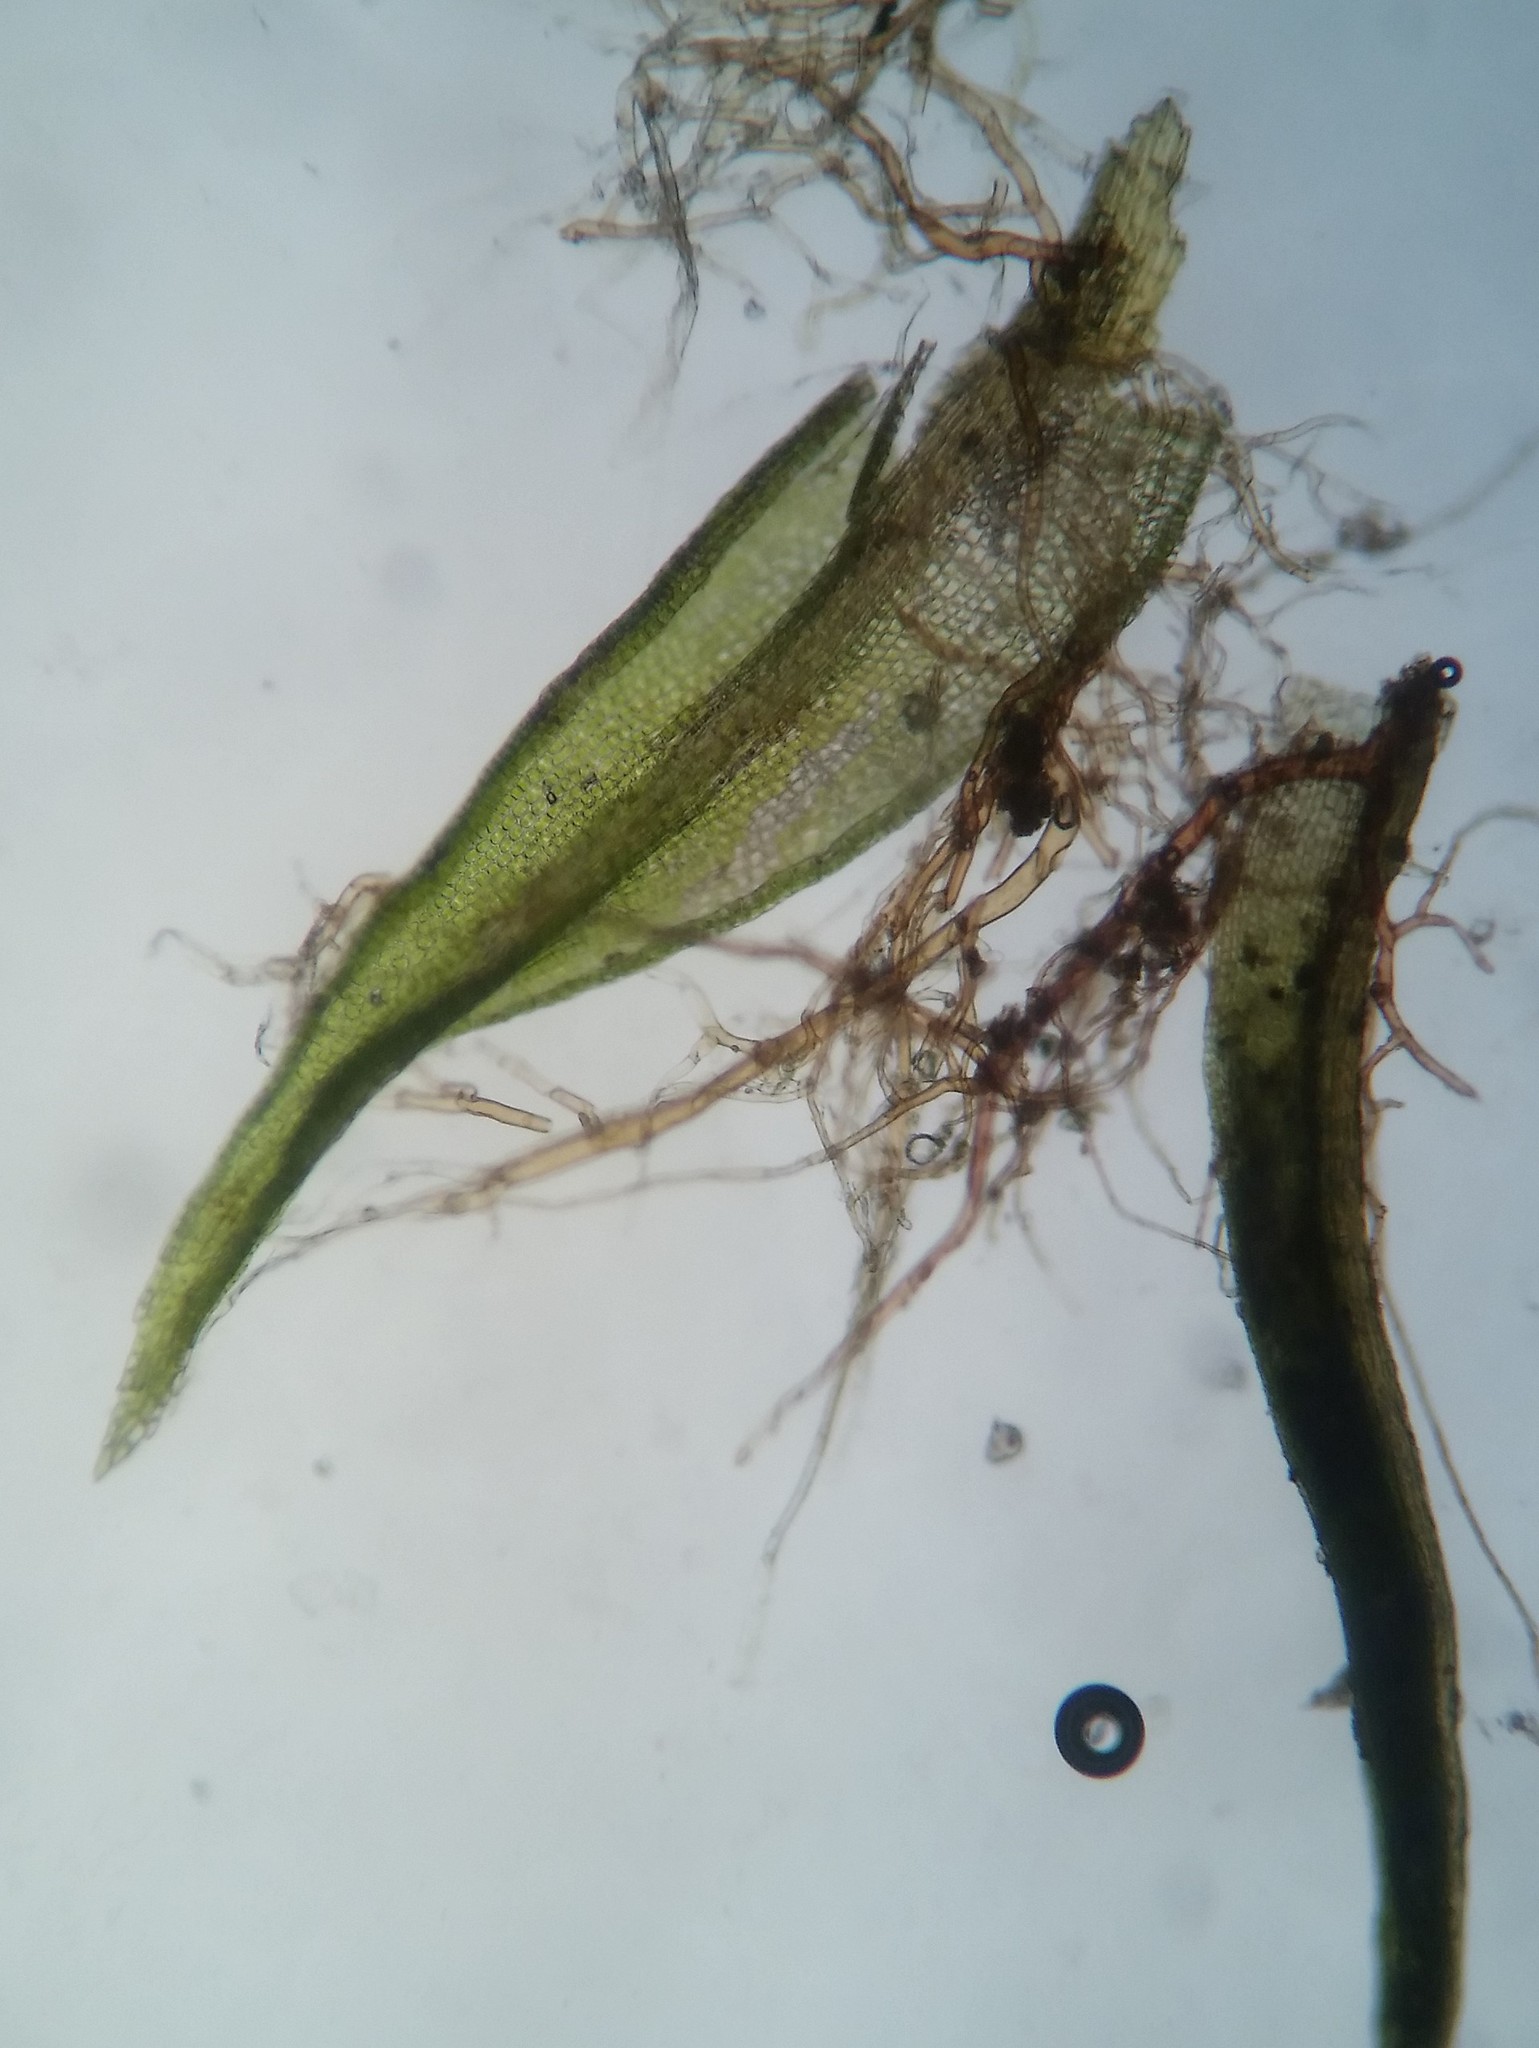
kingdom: Plantae
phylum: Bryophyta
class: Bryopsida
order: Dicranales
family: Ditrichaceae
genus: Ceratodon
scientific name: Ceratodon purpureus
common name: Redshank
